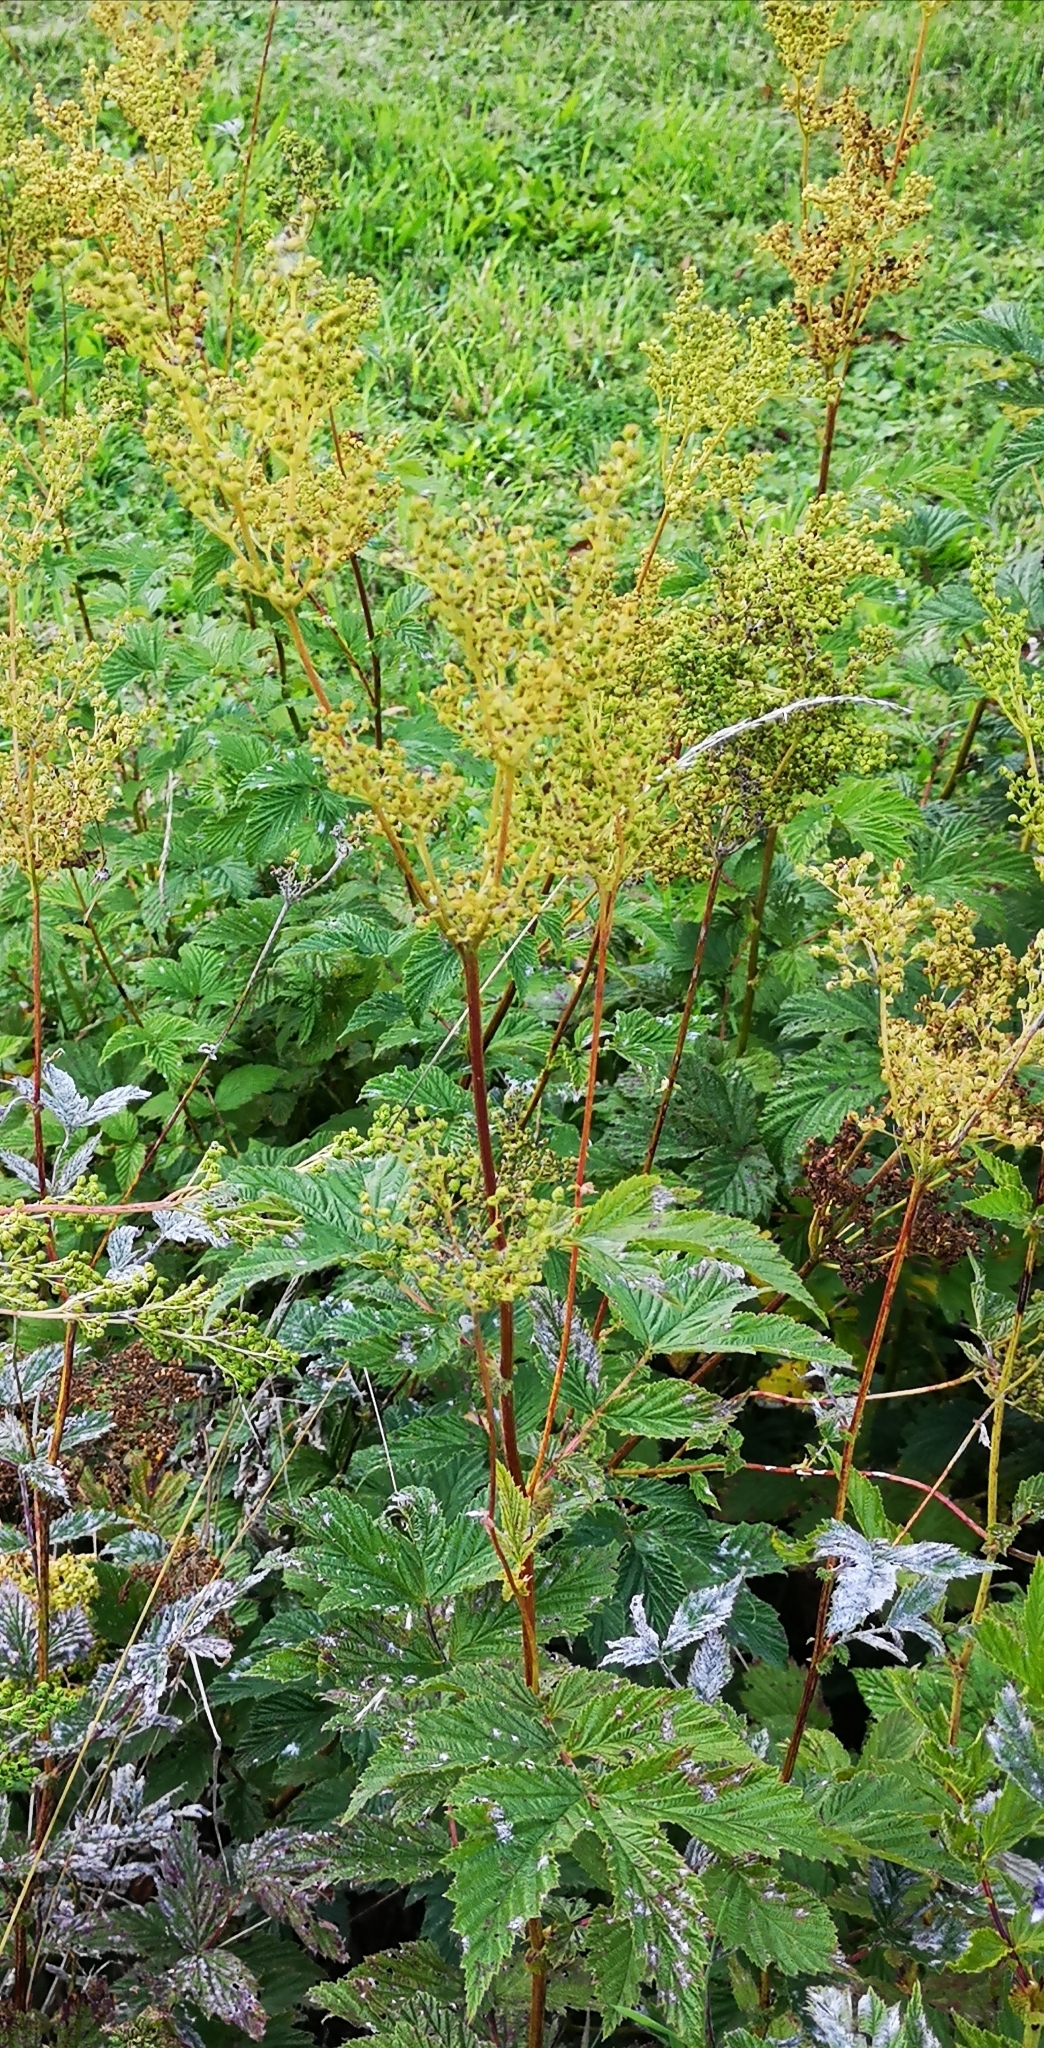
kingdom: Plantae
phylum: Tracheophyta
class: Magnoliopsida
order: Rosales
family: Rosaceae
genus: Filipendula
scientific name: Filipendula ulmaria
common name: Meadowsweet
